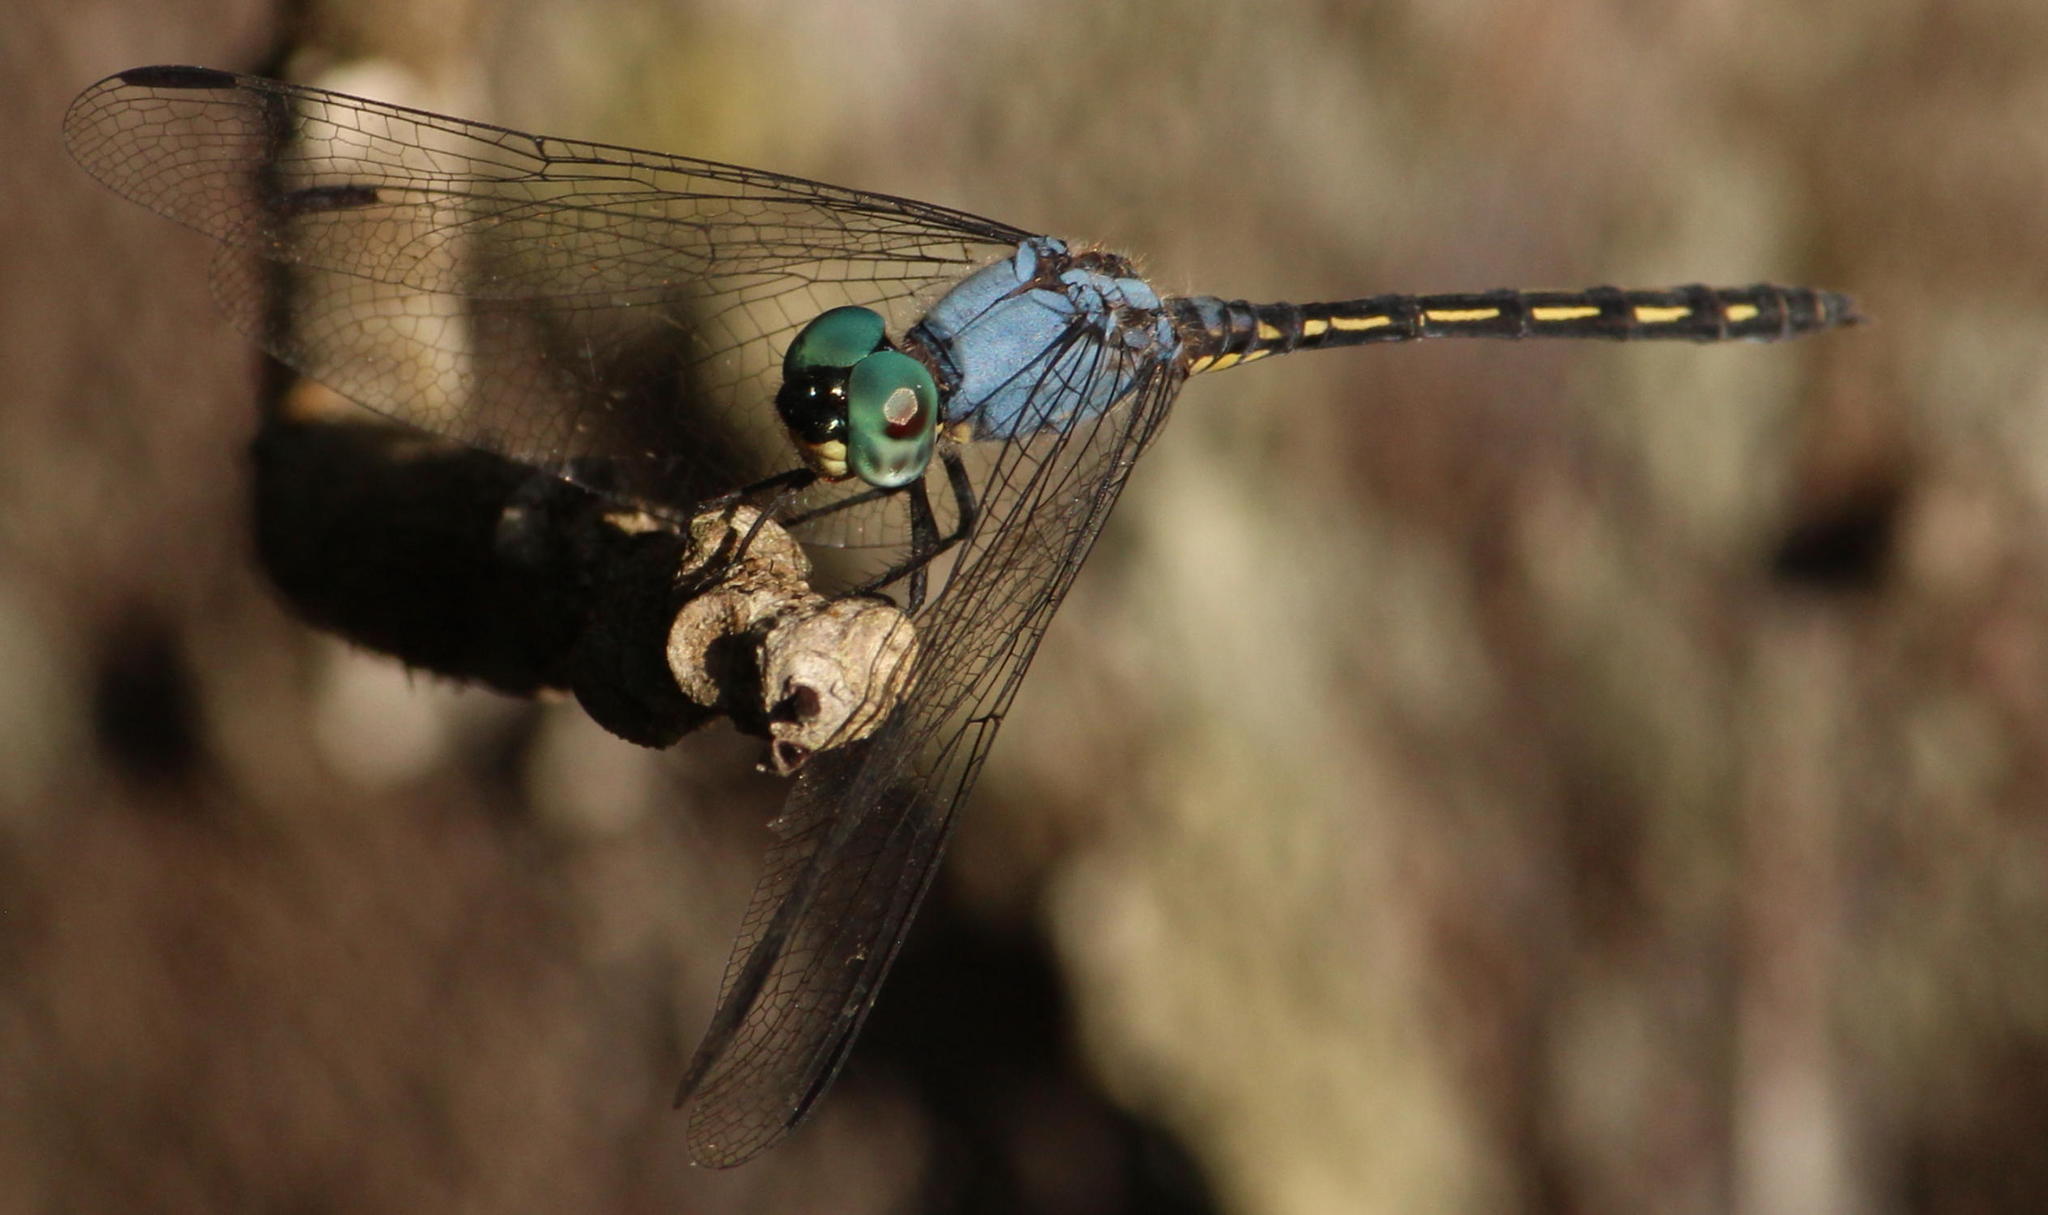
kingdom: Animalia
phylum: Arthropoda
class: Insecta
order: Odonata
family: Libellulidae
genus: Trithemis
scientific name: Trithemis stictica
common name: Jaunty dropwing
